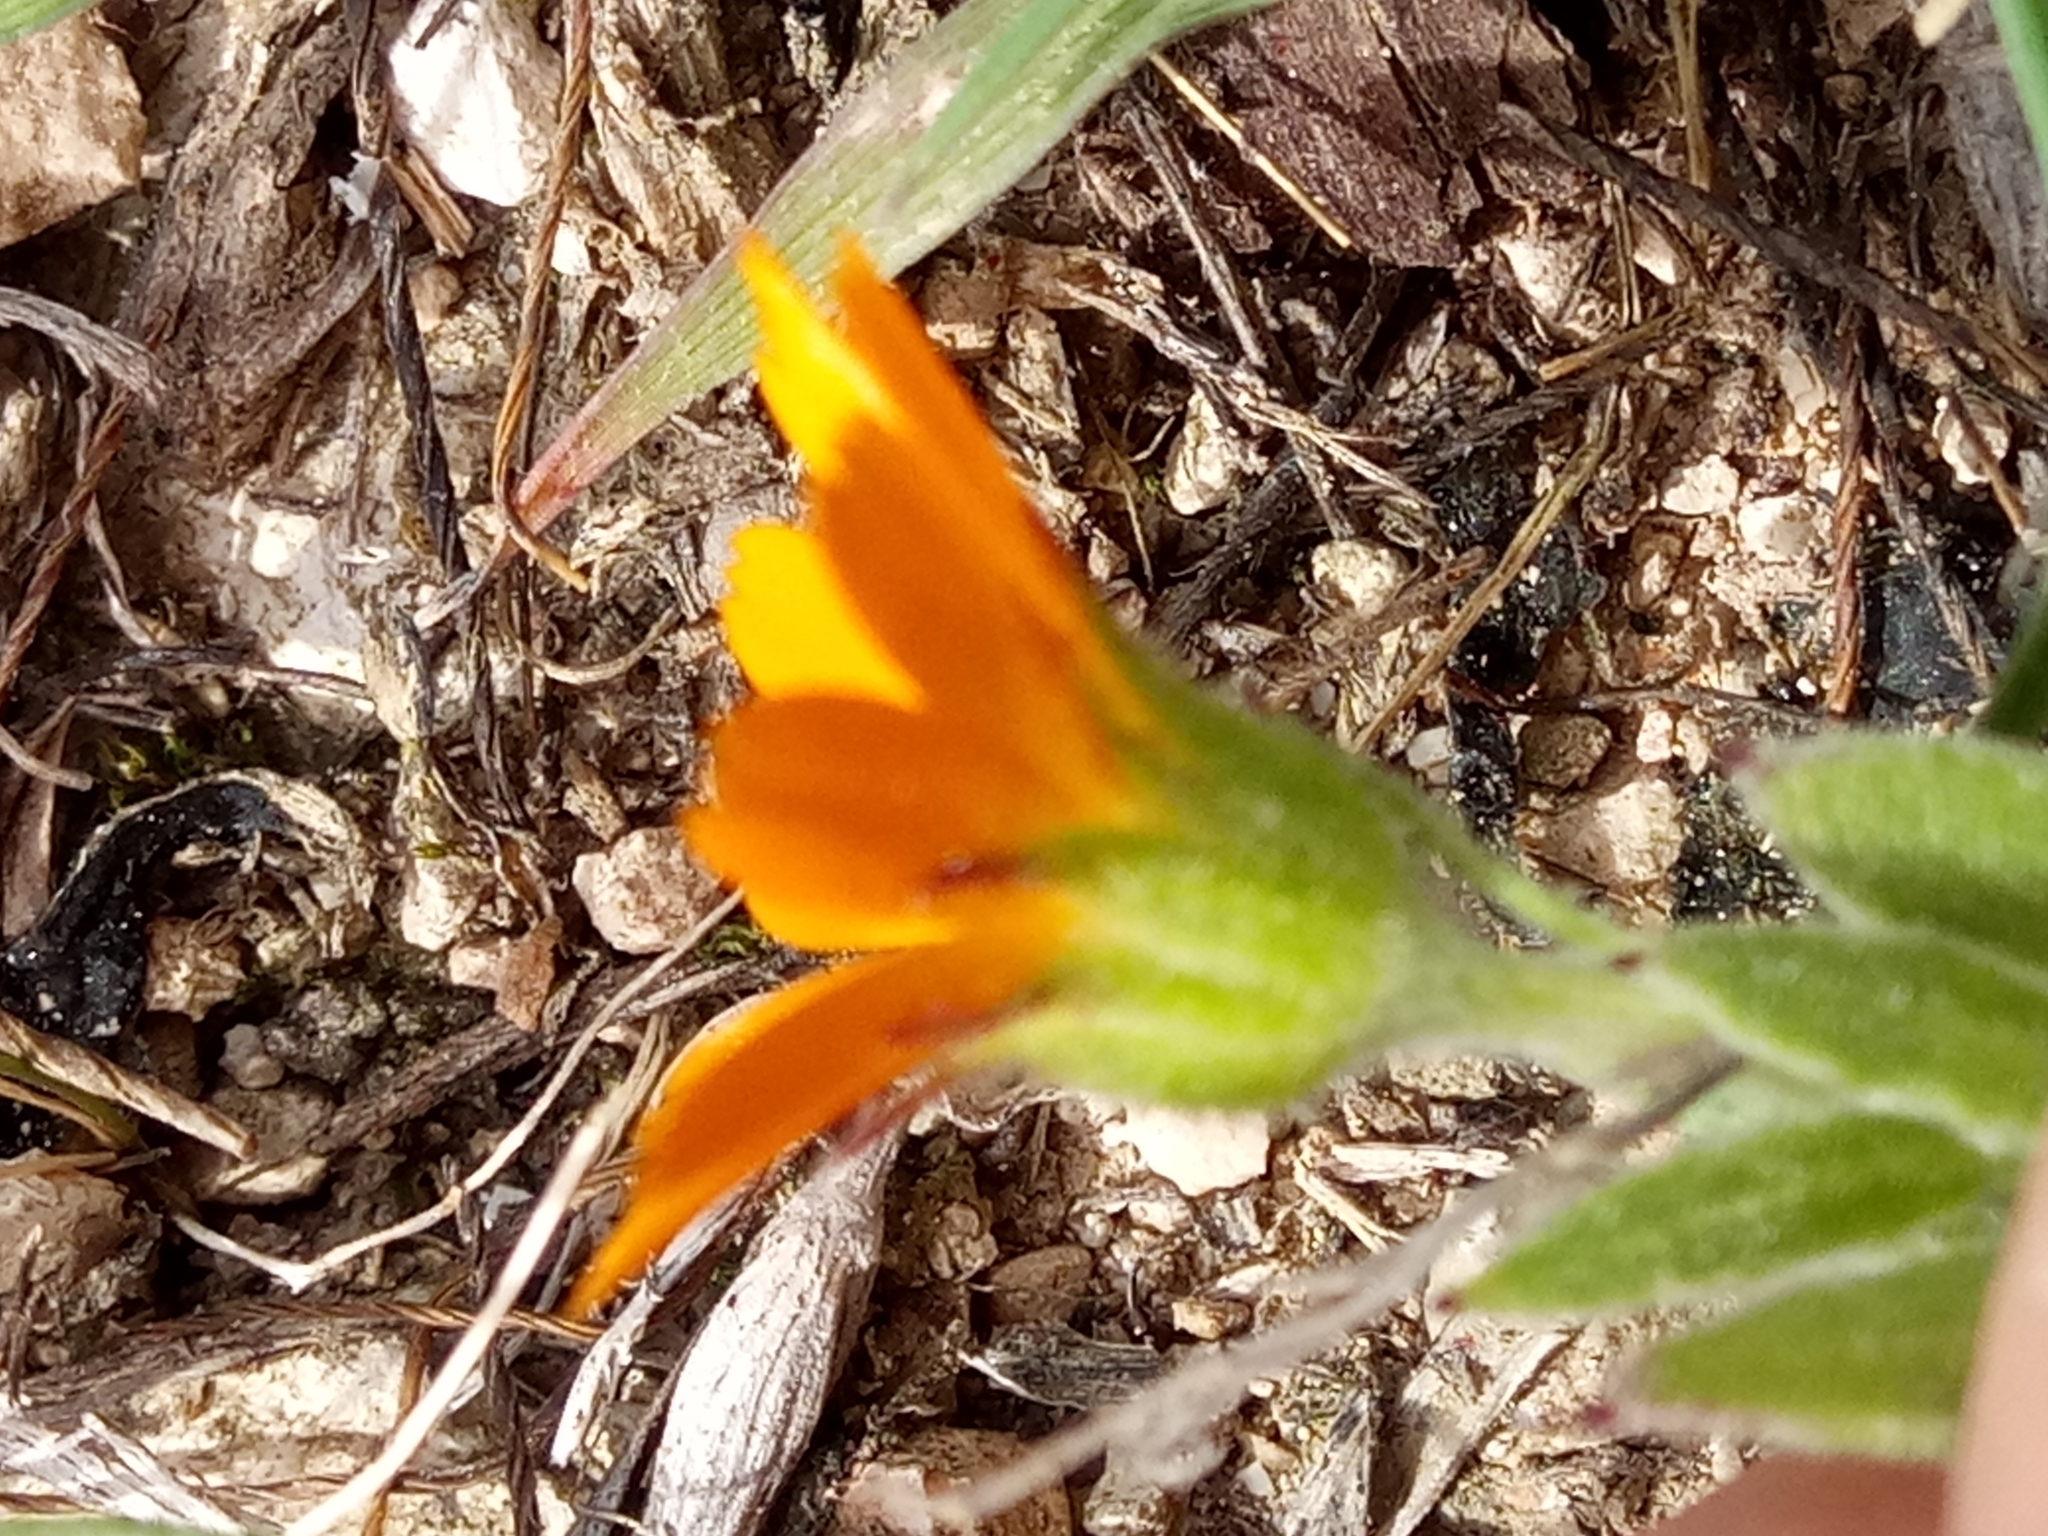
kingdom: Plantae
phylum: Tracheophyta
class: Magnoliopsida
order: Asterales
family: Asteraceae
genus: Calendula
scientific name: Calendula arvensis
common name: Field marigold
